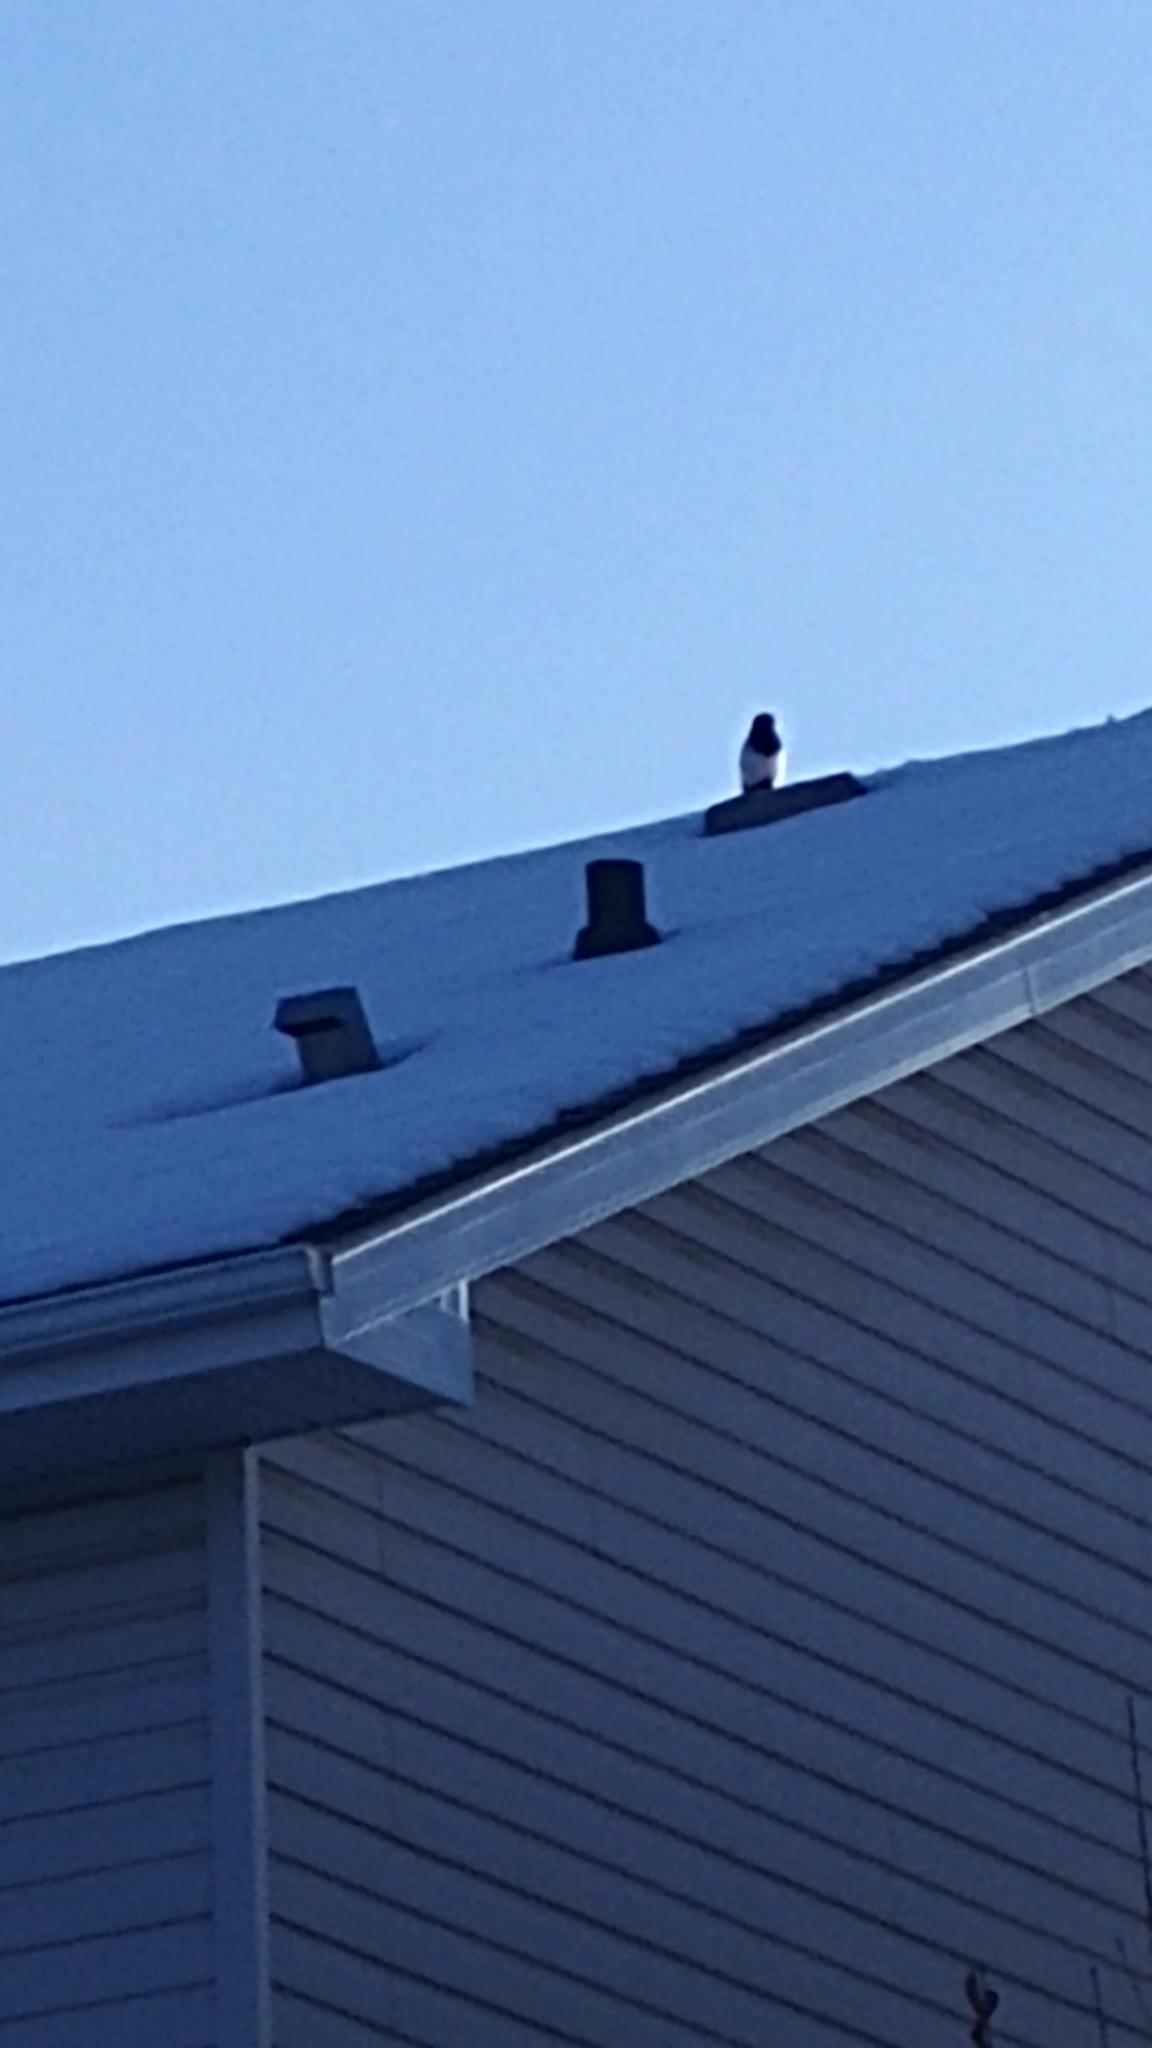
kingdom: Animalia
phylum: Chordata
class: Aves
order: Passeriformes
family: Corvidae
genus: Pica
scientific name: Pica hudsonia
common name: Black-billed magpie
